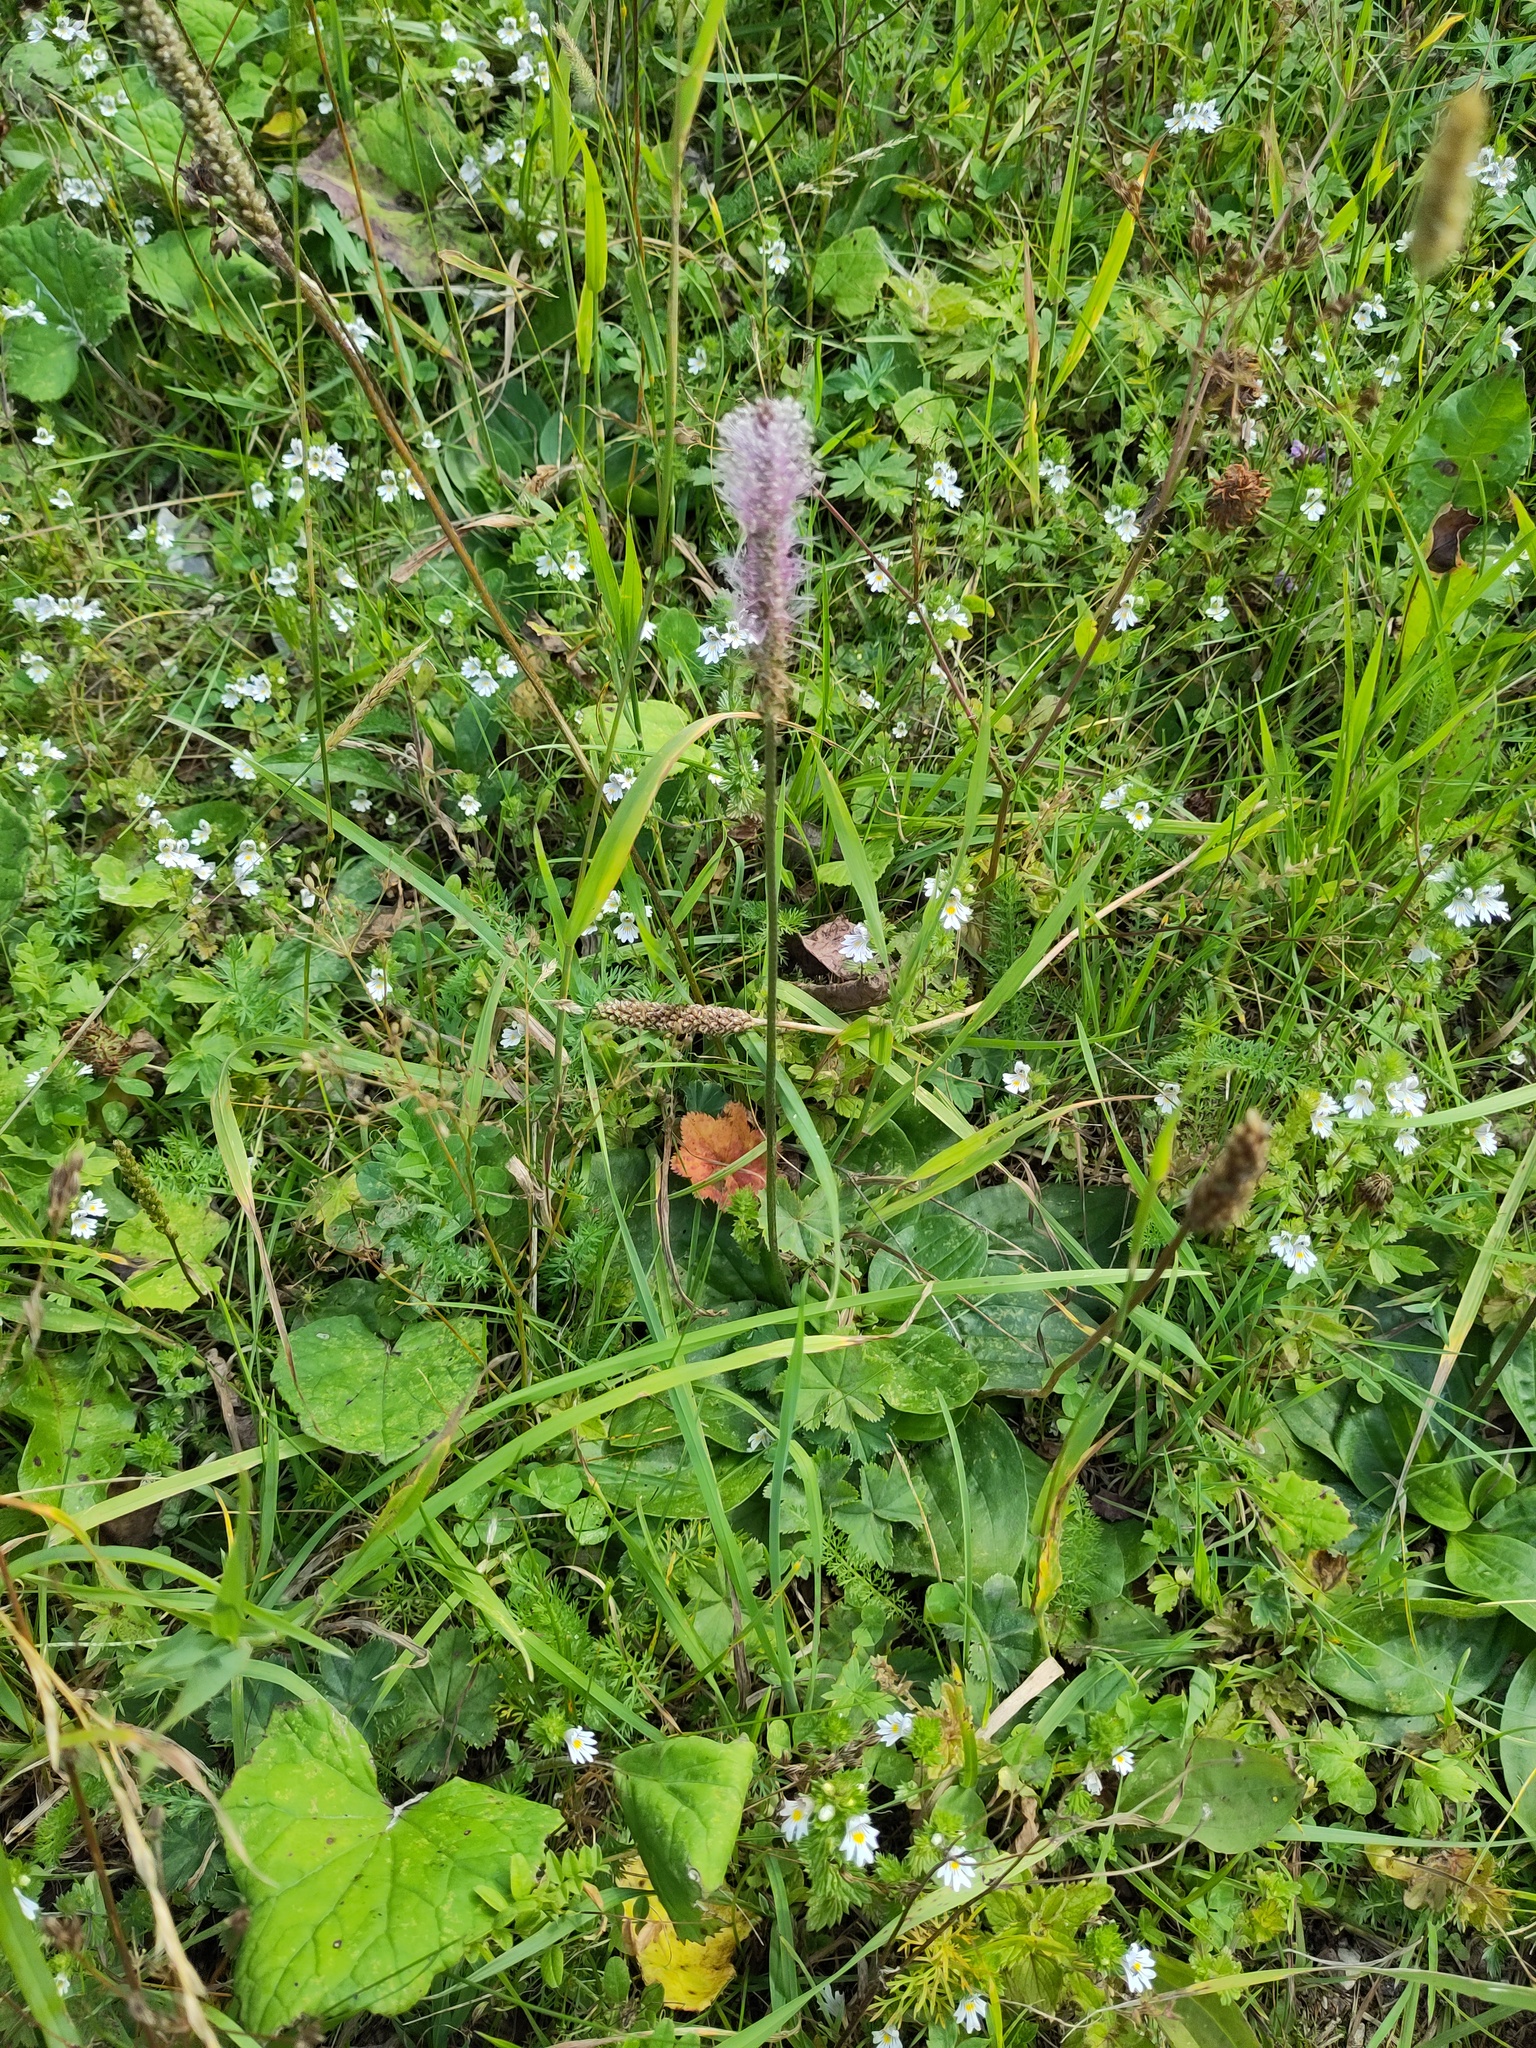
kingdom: Plantae
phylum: Tracheophyta
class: Magnoliopsida
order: Lamiales
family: Plantaginaceae
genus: Plantago
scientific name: Plantago media
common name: Hoary plantain
